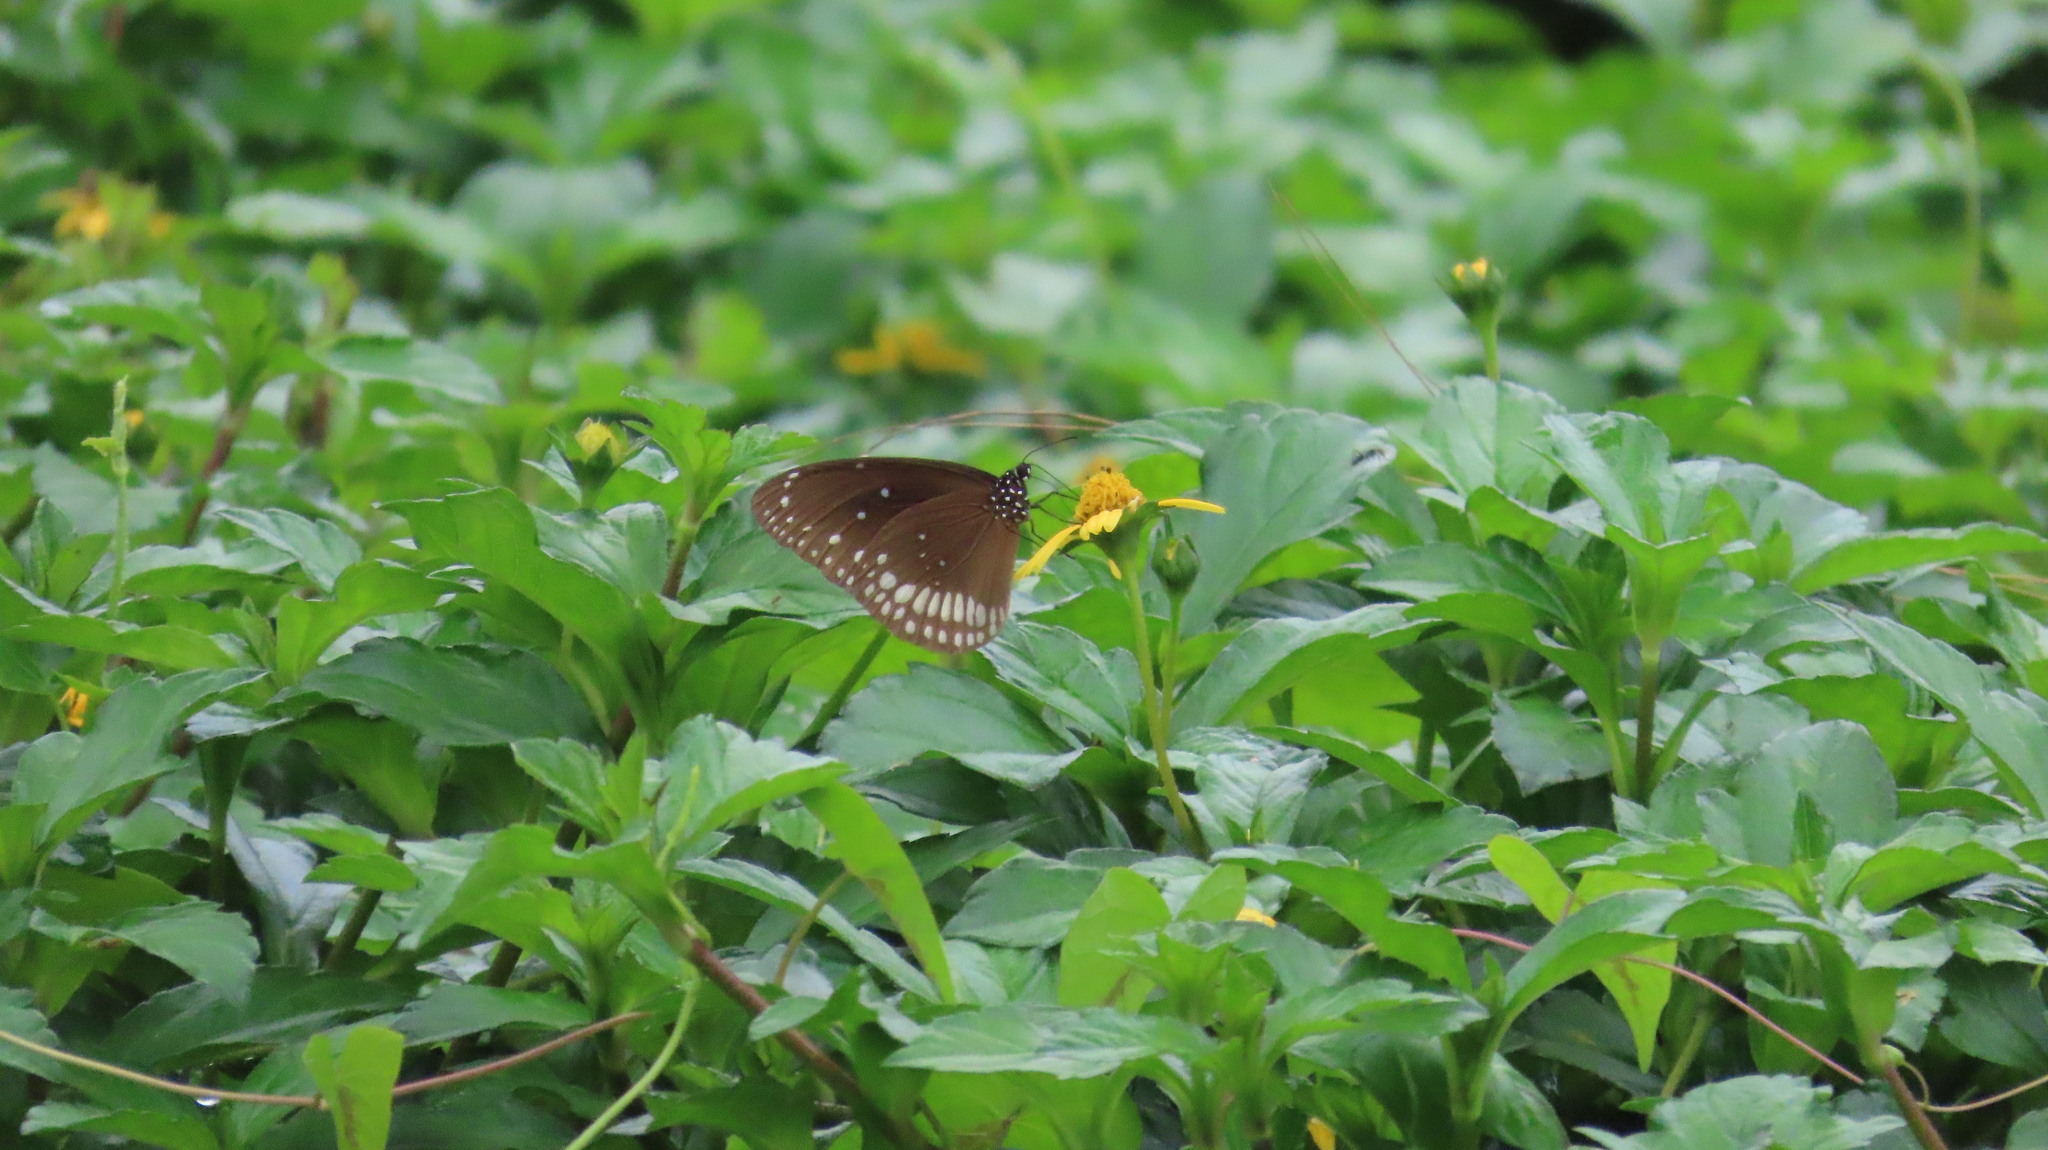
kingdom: Animalia
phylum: Arthropoda
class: Insecta
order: Lepidoptera
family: Nymphalidae
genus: Euploea
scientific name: Euploea core
